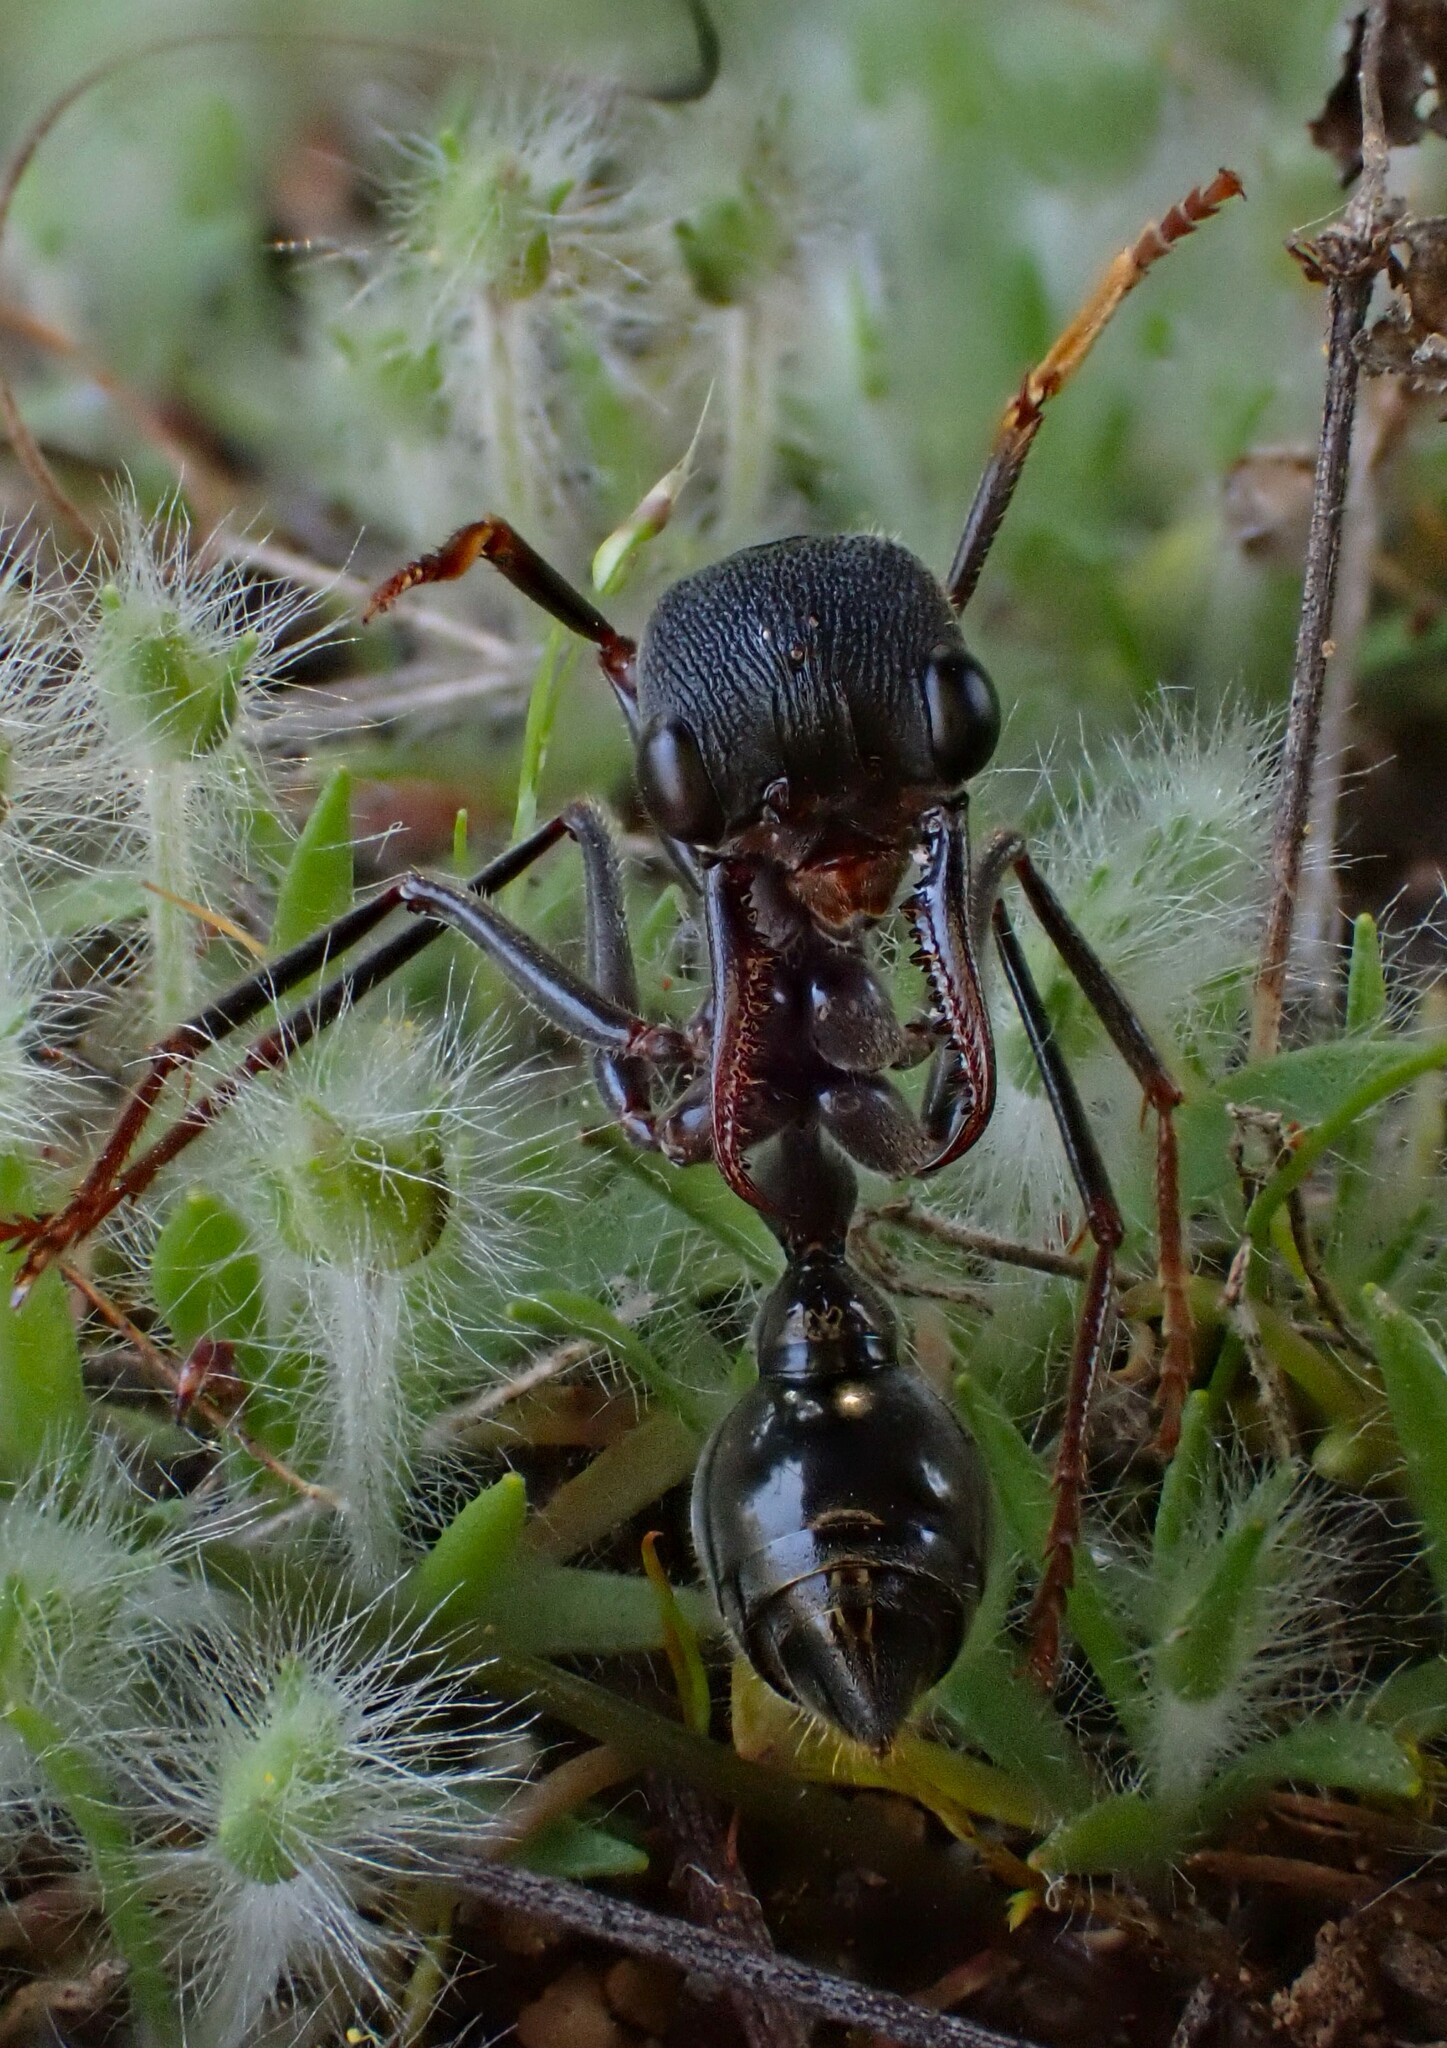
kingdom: Animalia
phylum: Arthropoda
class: Insecta
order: Hymenoptera
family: Formicidae
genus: Myrmecia
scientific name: Myrmecia pyriformis
